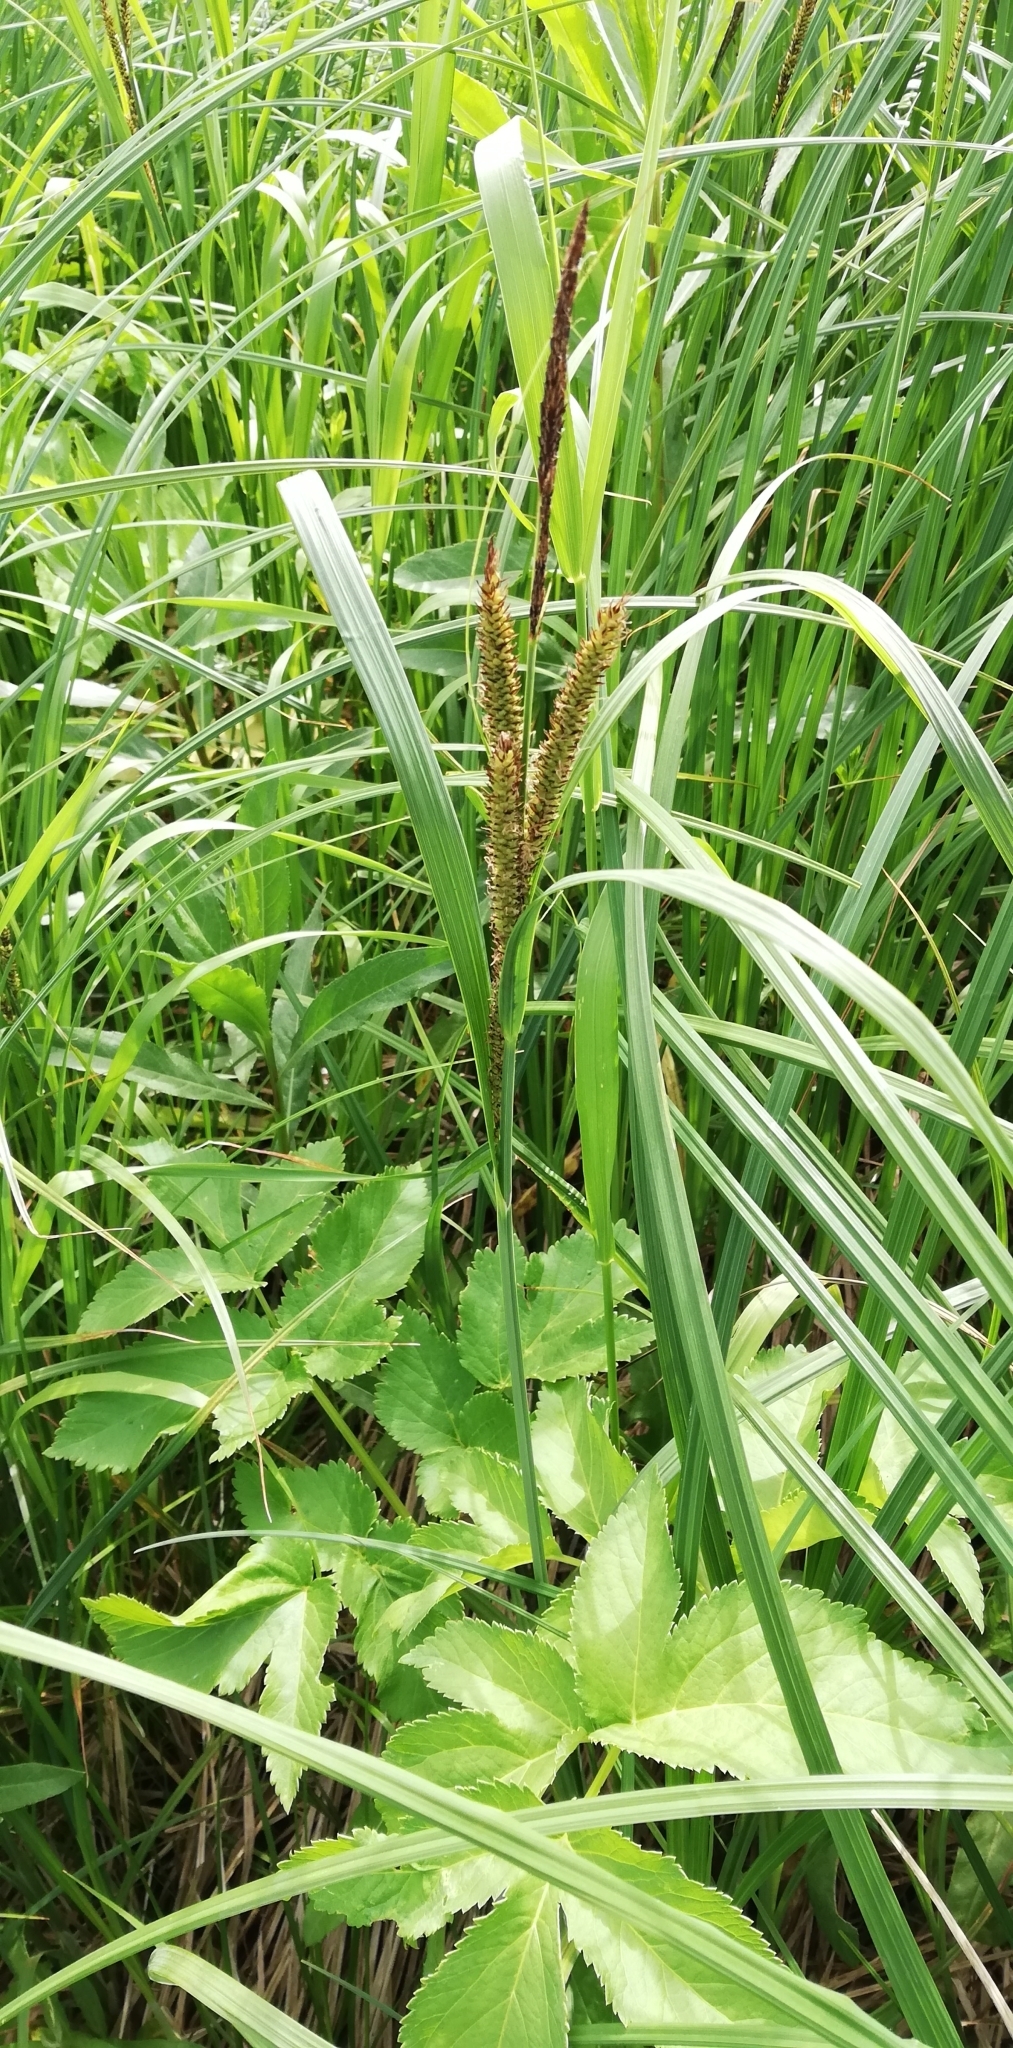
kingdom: Plantae
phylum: Tracheophyta
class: Liliopsida
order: Poales
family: Cyperaceae
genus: Carex
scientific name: Carex riparia
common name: Greater pond-sedge
